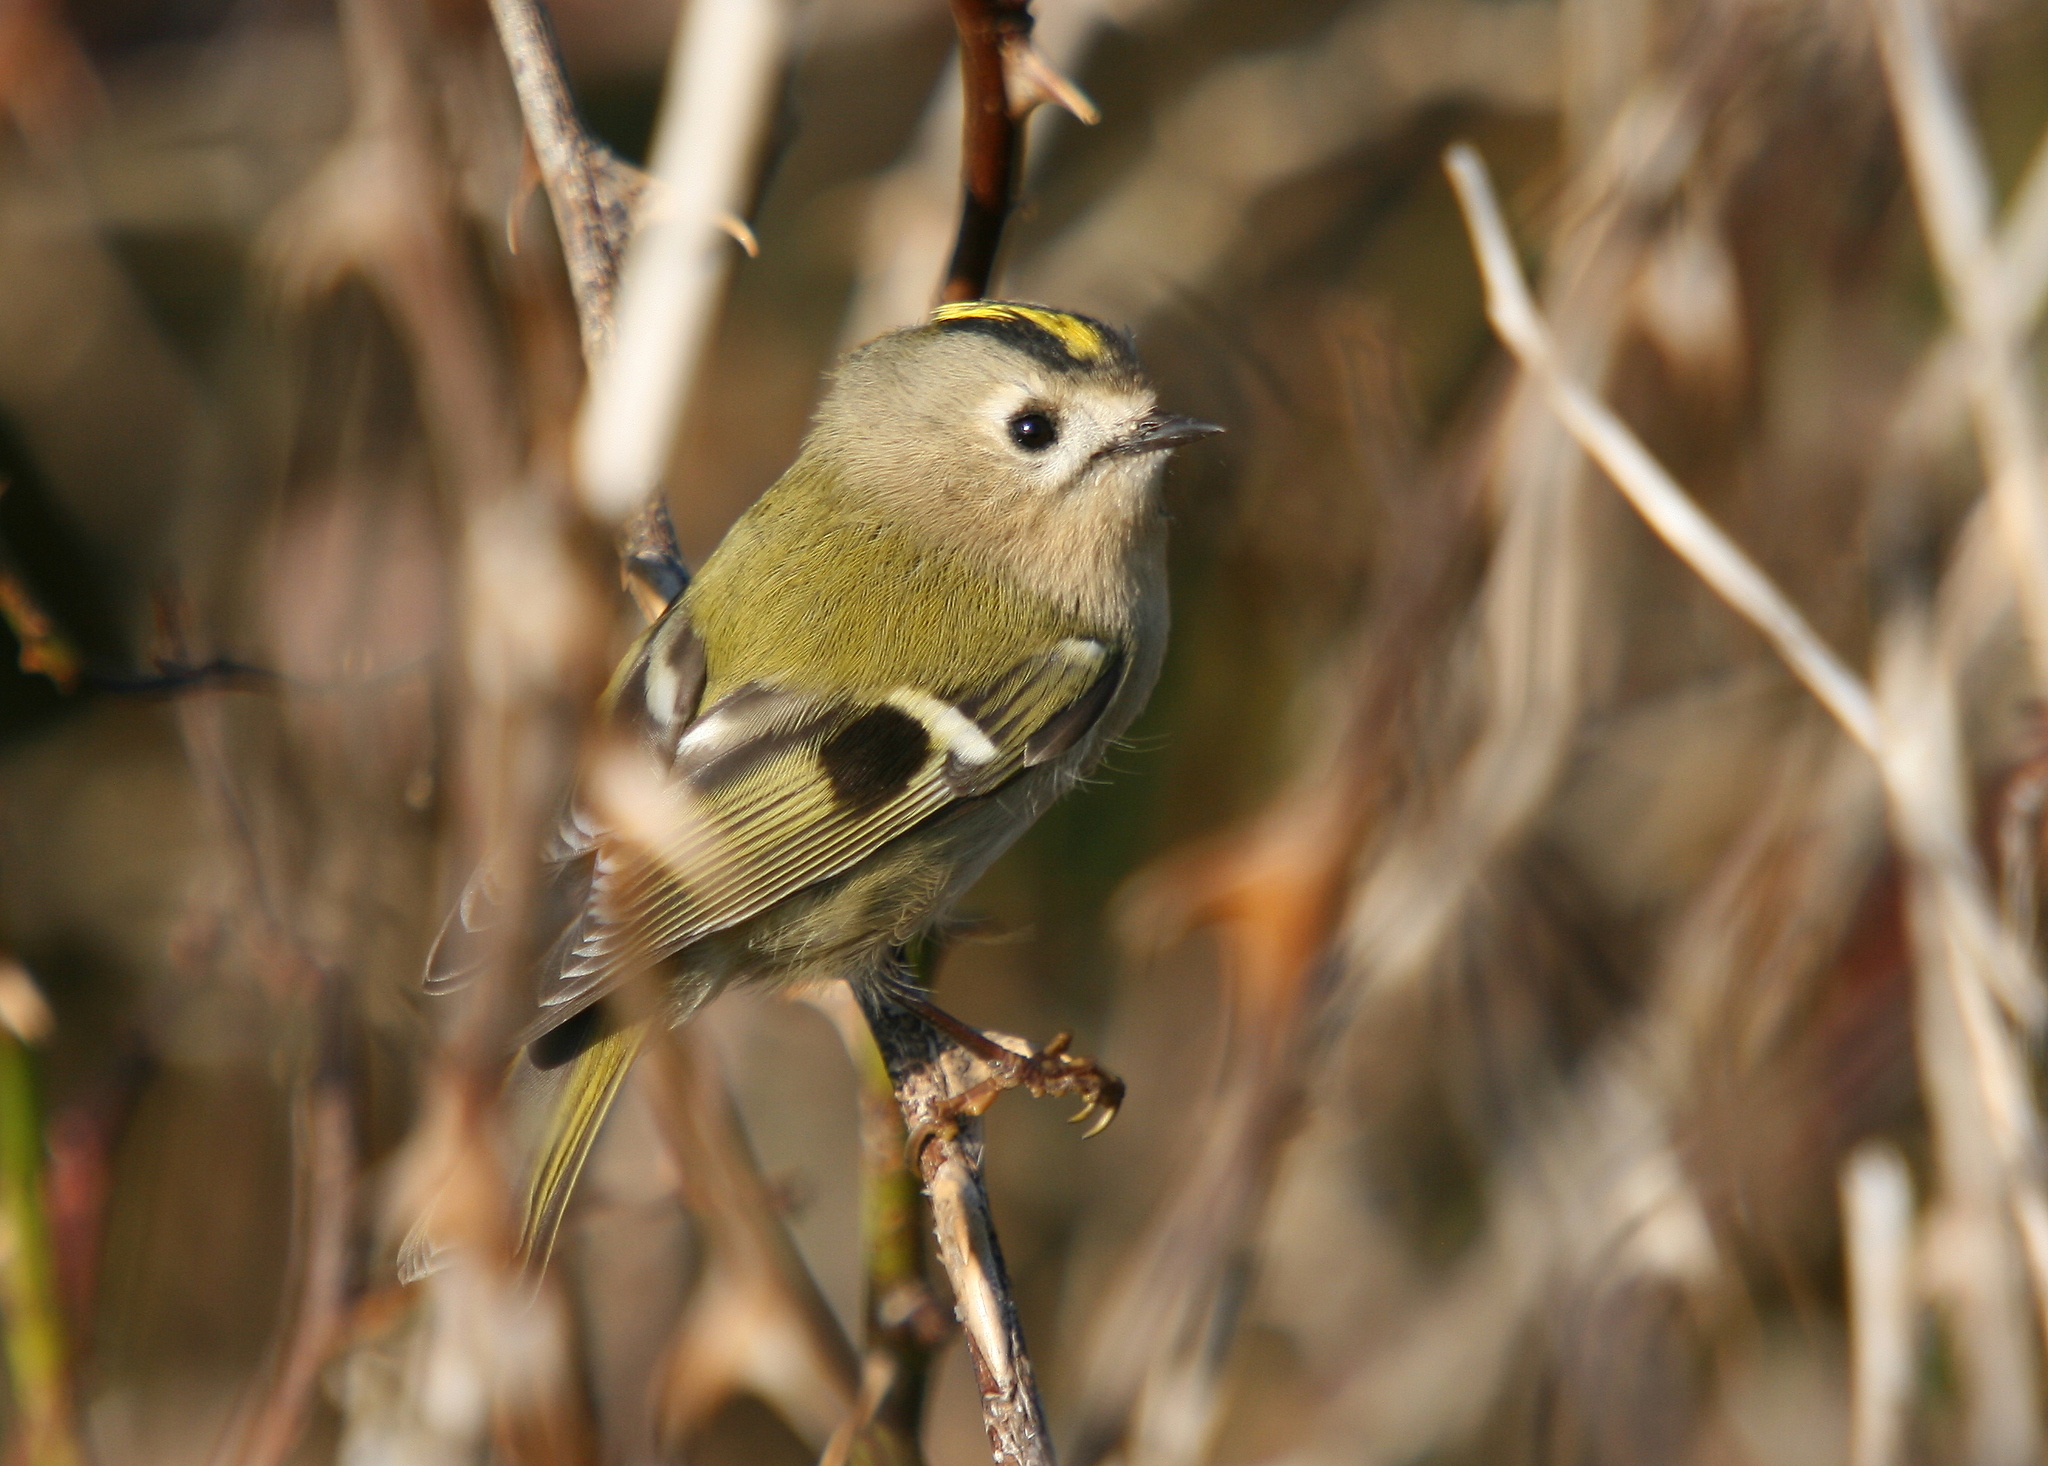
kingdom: Animalia
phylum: Chordata
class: Aves
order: Passeriformes
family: Regulidae
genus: Regulus
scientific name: Regulus regulus
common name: Goldcrest
